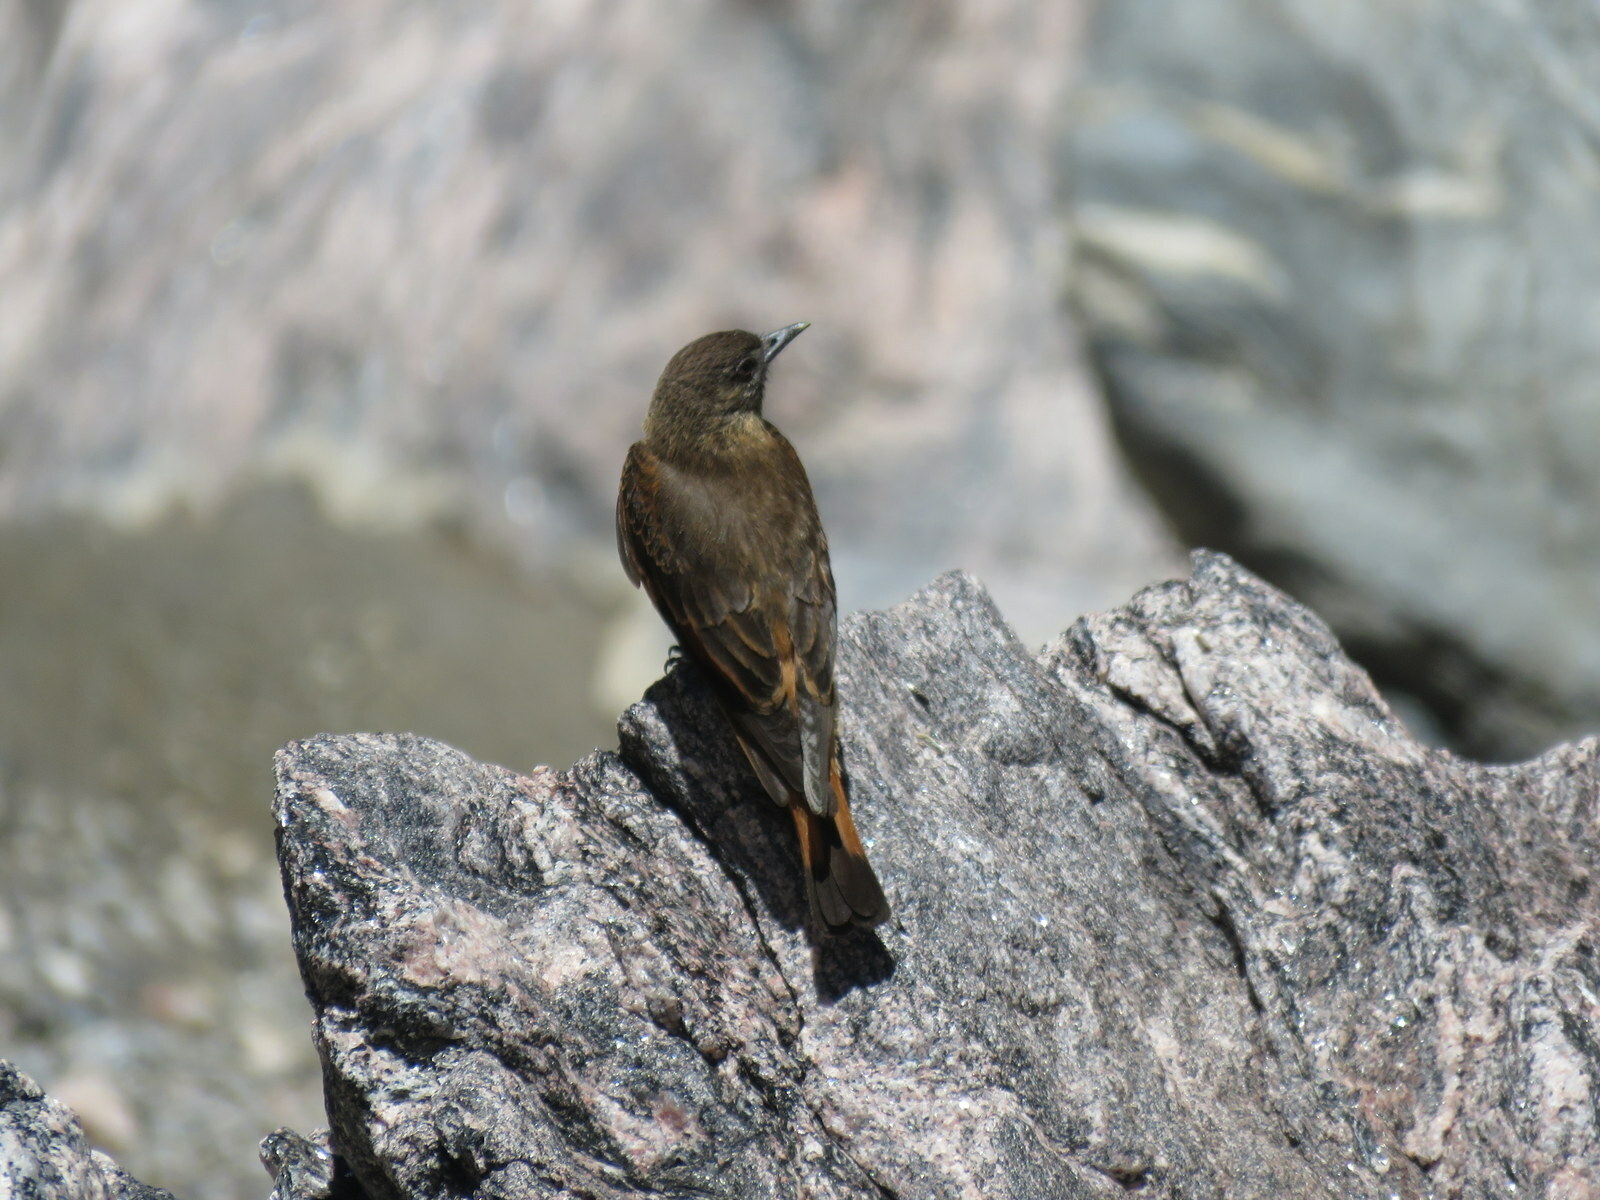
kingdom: Animalia
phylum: Chordata
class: Aves
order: Passeriformes
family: Tyrannidae
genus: Hirundinea
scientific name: Hirundinea ferruginea
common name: Cliff flycatcher
